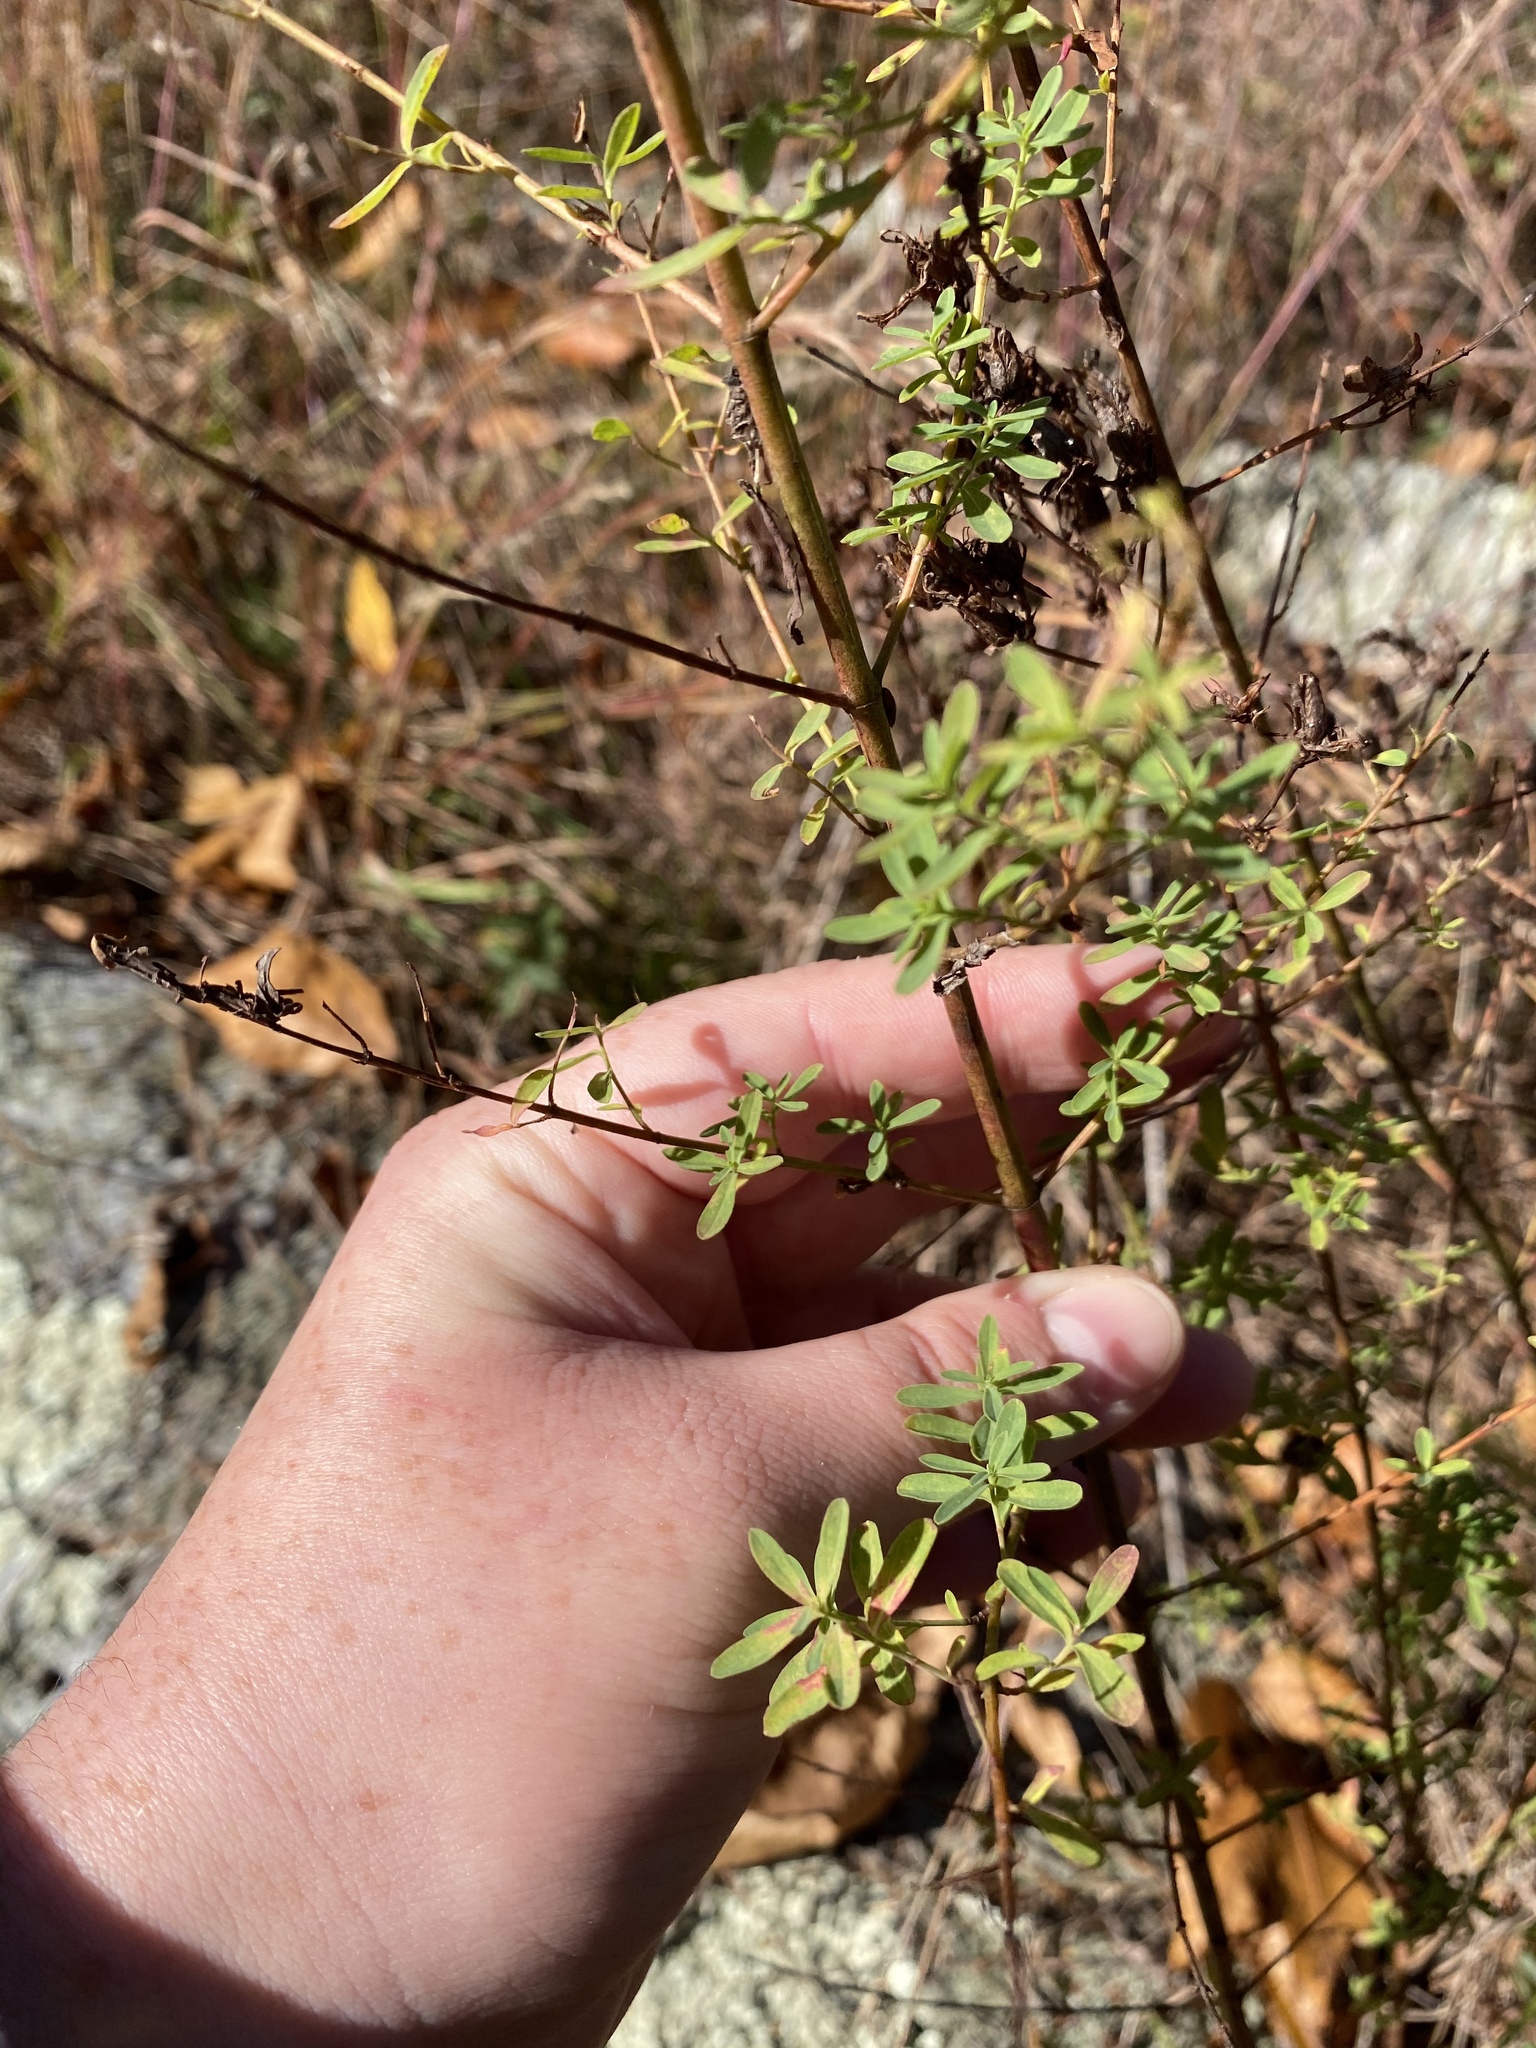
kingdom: Plantae
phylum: Tracheophyta
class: Magnoliopsida
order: Malpighiales
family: Hypericaceae
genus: Hypericum
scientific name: Hypericum perforatum
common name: Common st. johnswort
